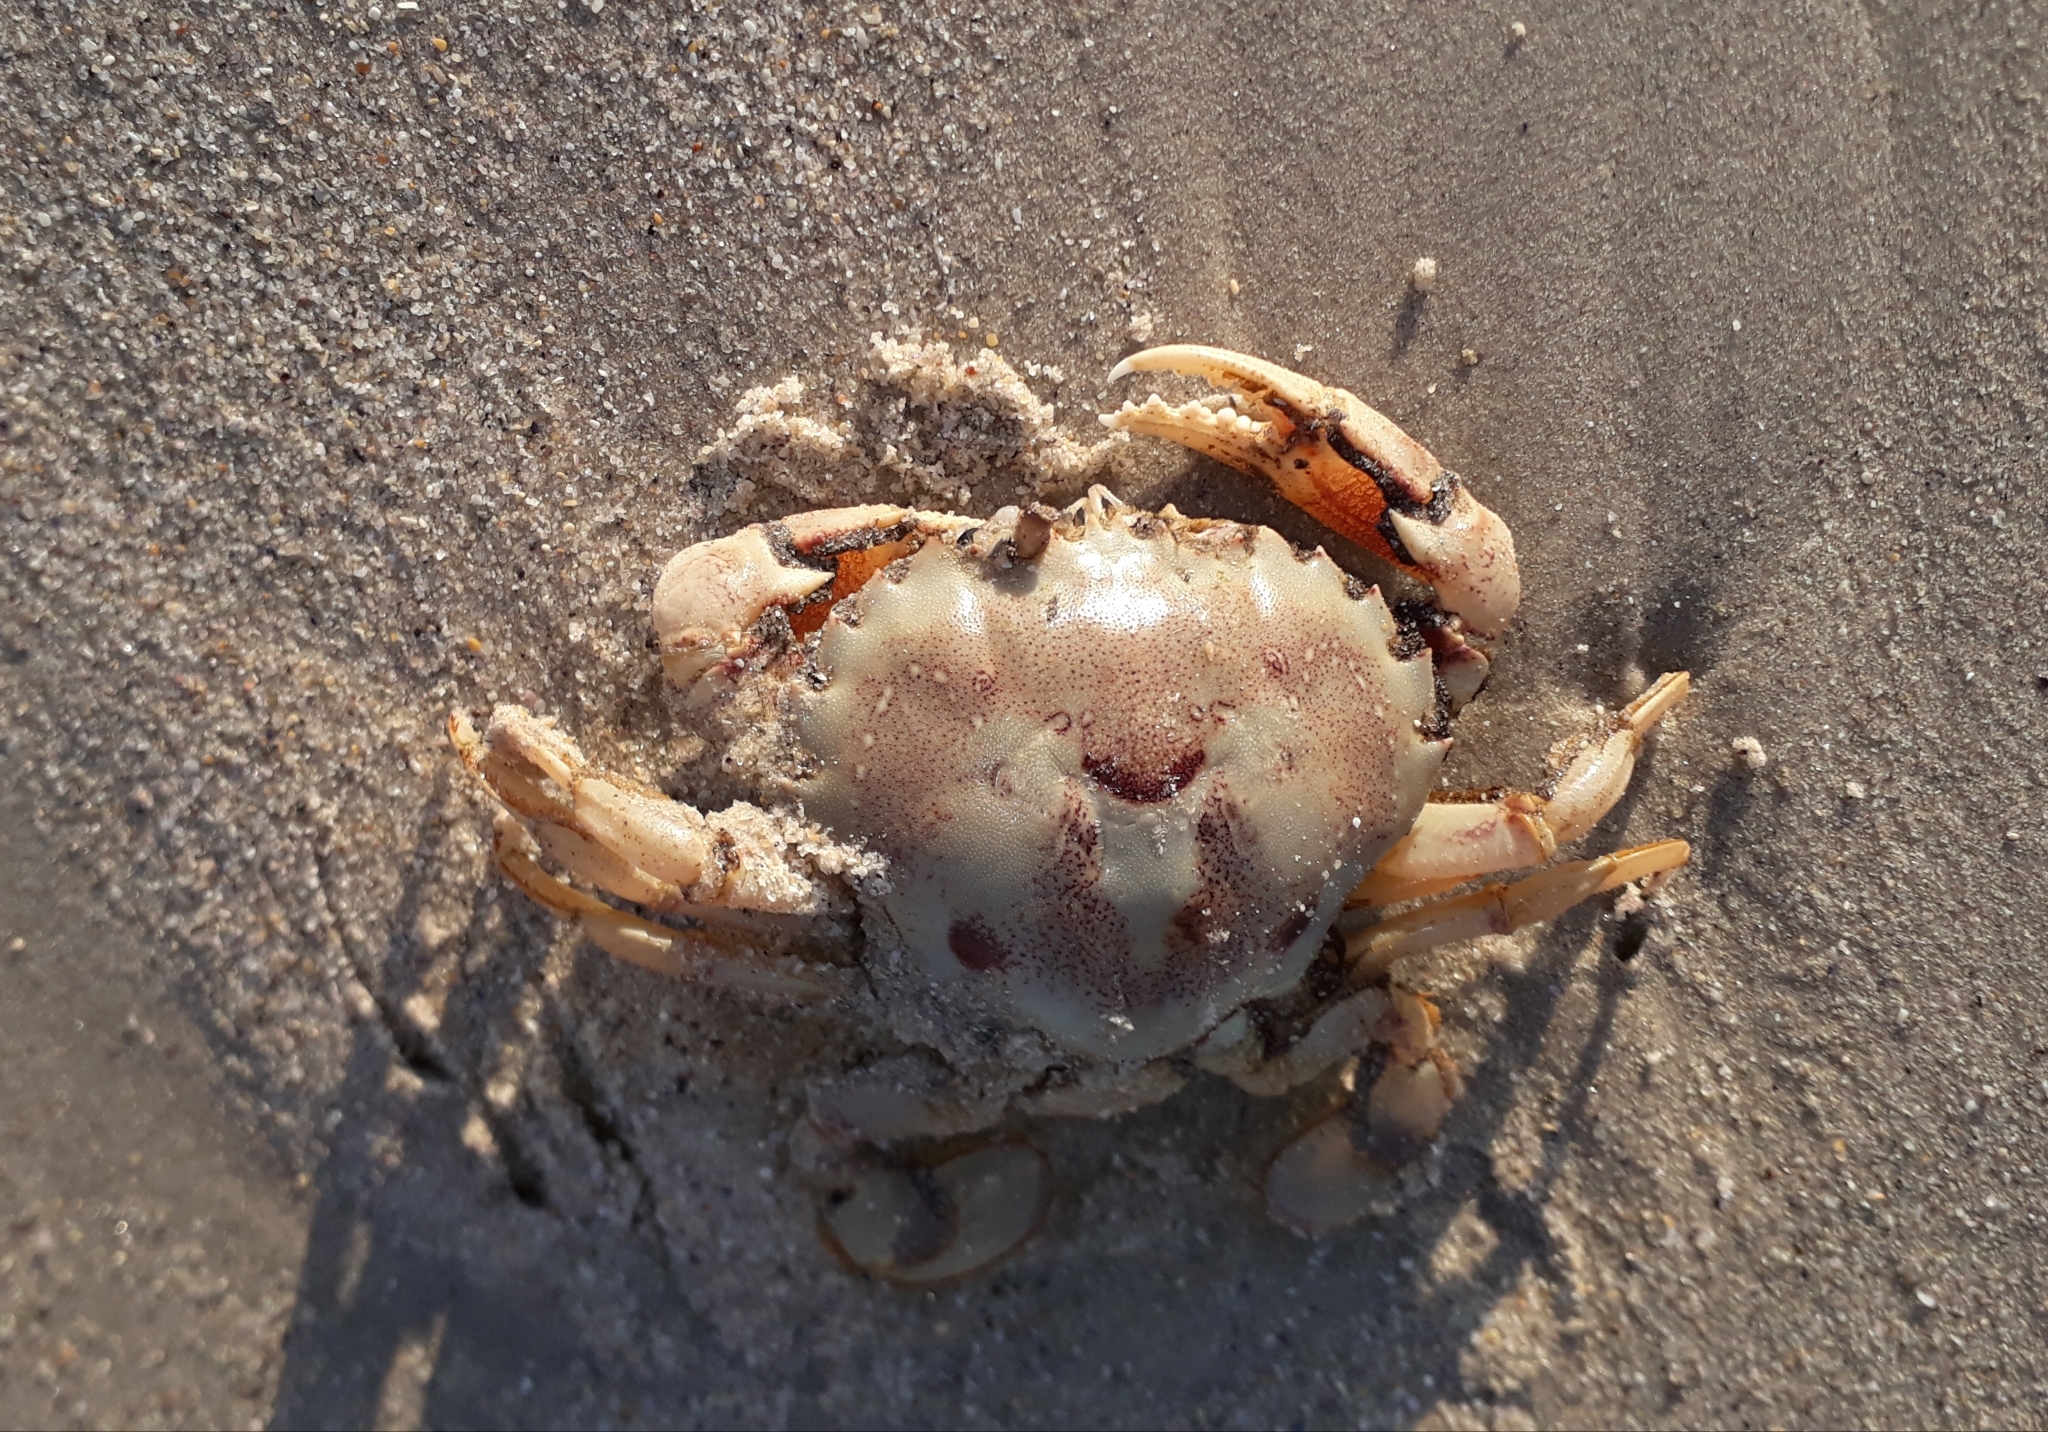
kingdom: Animalia
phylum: Arthropoda
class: Malacostraca
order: Decapoda
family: Ovalipidae
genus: Ovalipes
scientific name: Ovalipes trimaculatus
